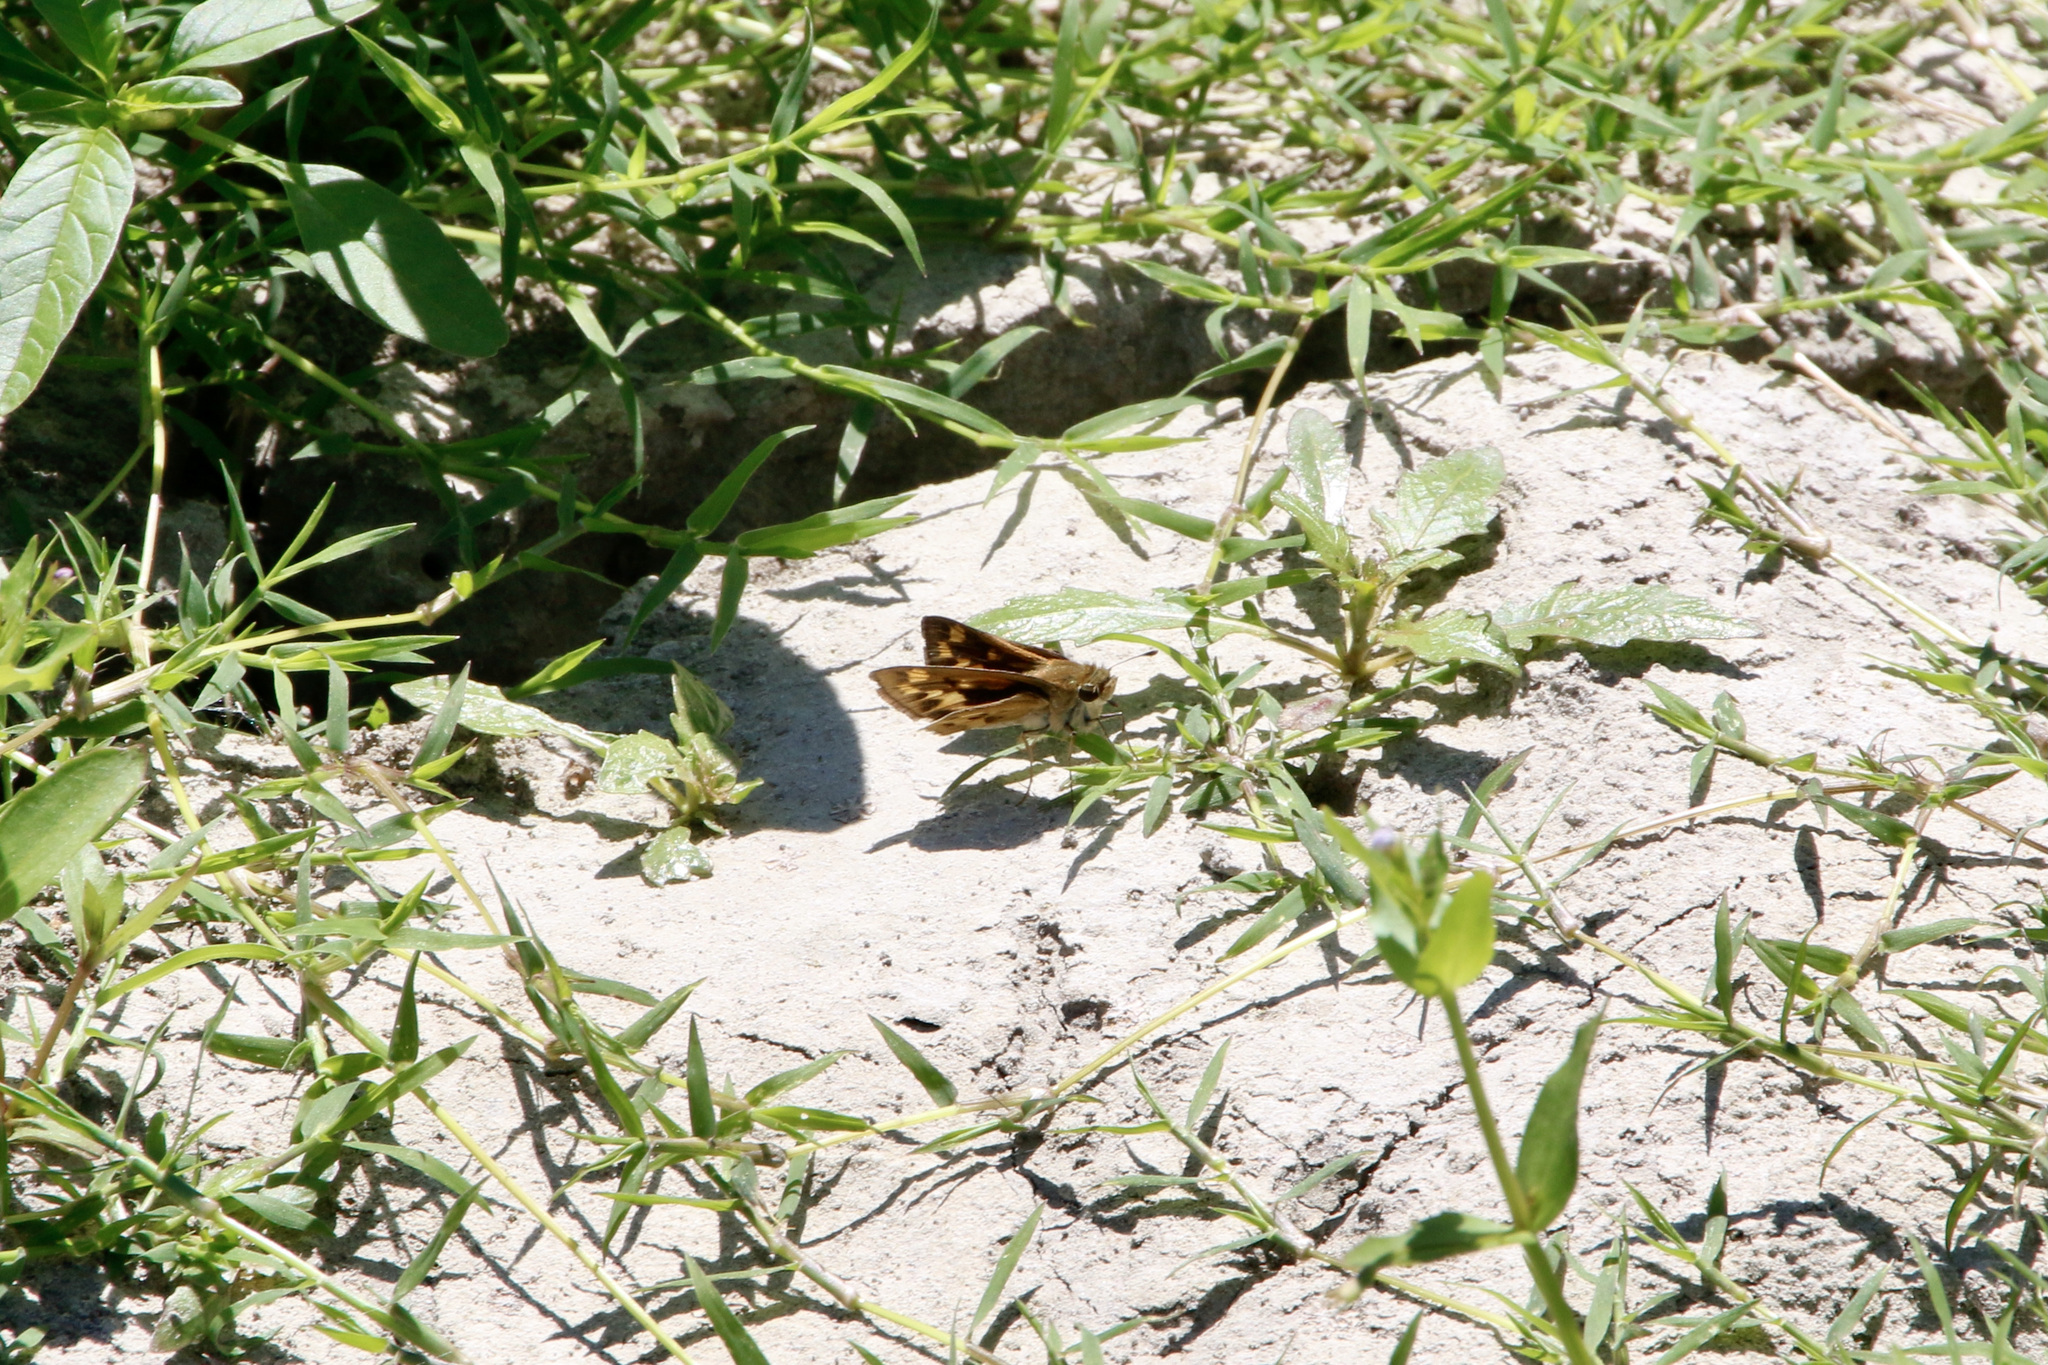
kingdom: Animalia
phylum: Arthropoda
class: Insecta
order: Lepidoptera
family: Hesperiidae
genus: Hylephila
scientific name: Hylephila phyleus
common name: Fiery skipper
